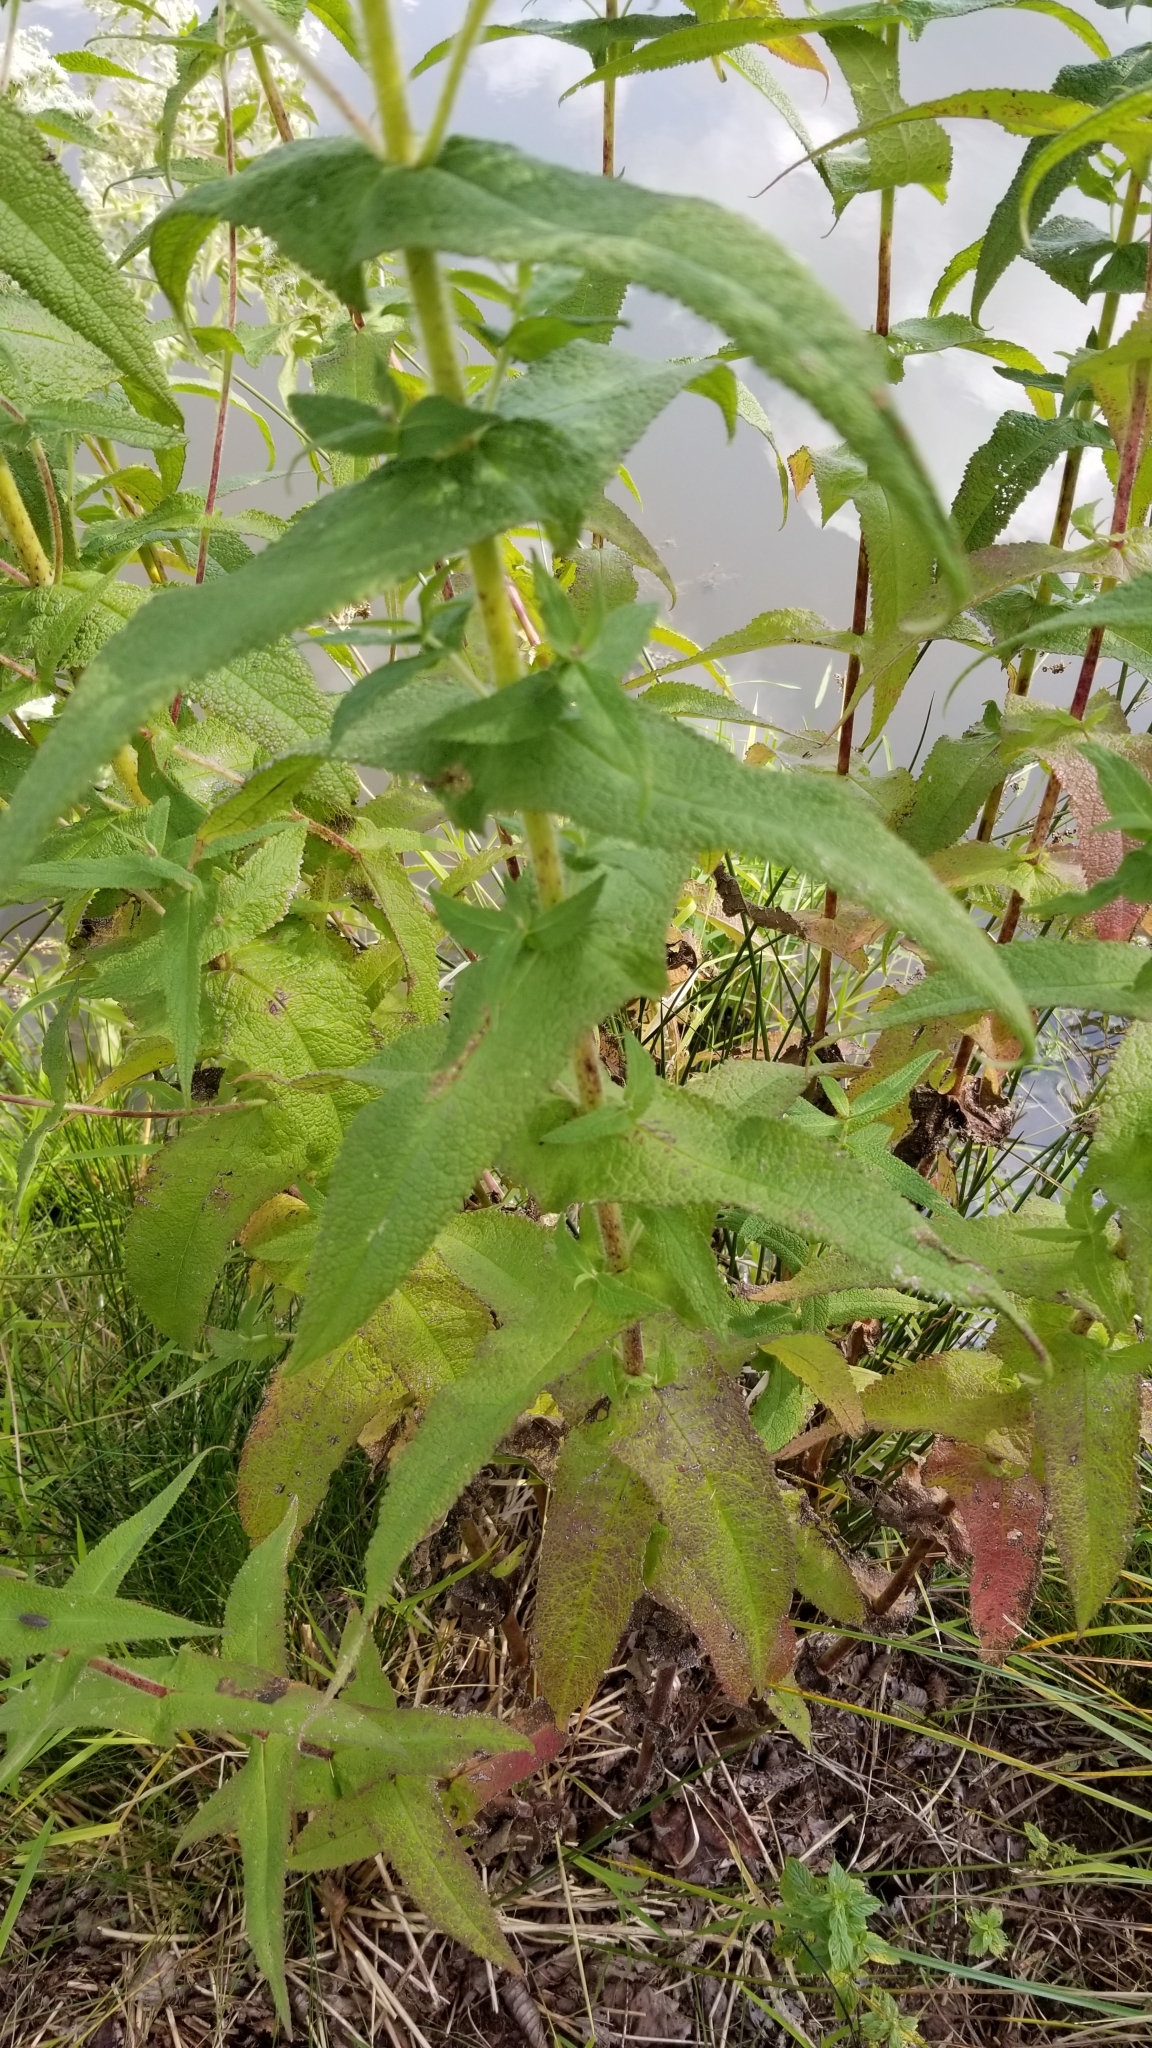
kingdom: Plantae
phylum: Tracheophyta
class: Magnoliopsida
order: Asterales
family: Asteraceae
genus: Eupatorium
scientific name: Eupatorium perfoliatum
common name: Boneset
